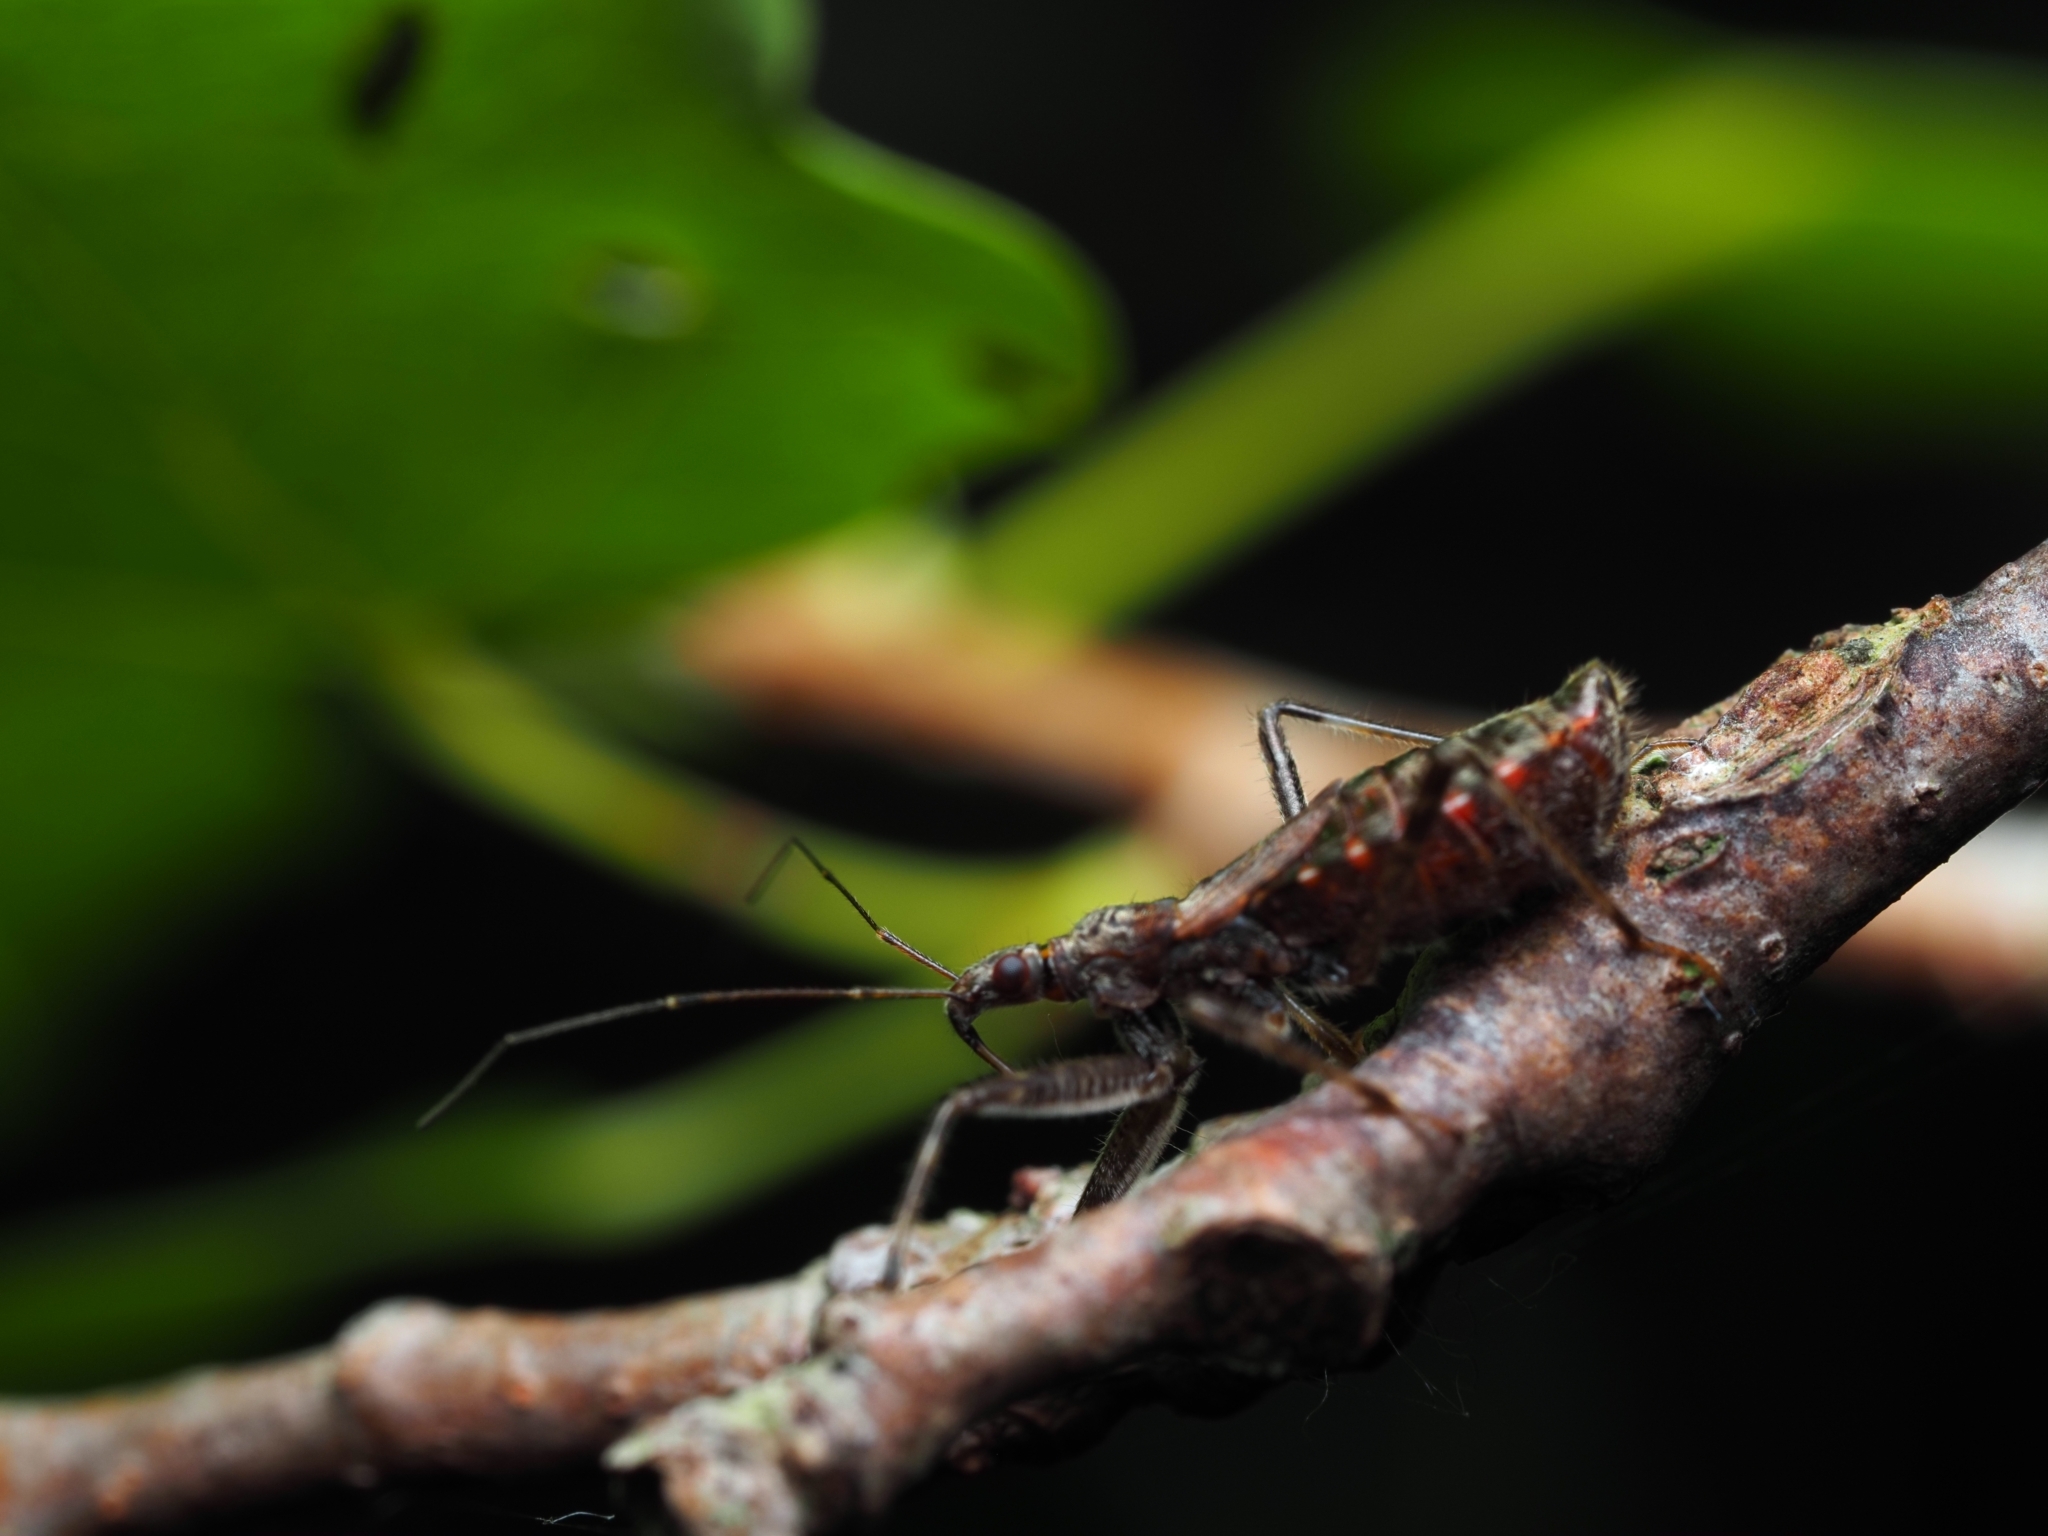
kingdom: Animalia
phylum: Arthropoda
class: Insecta
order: Hemiptera
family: Nabidae
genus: Himacerus
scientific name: Himacerus apterus
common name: Tree damsel bug
